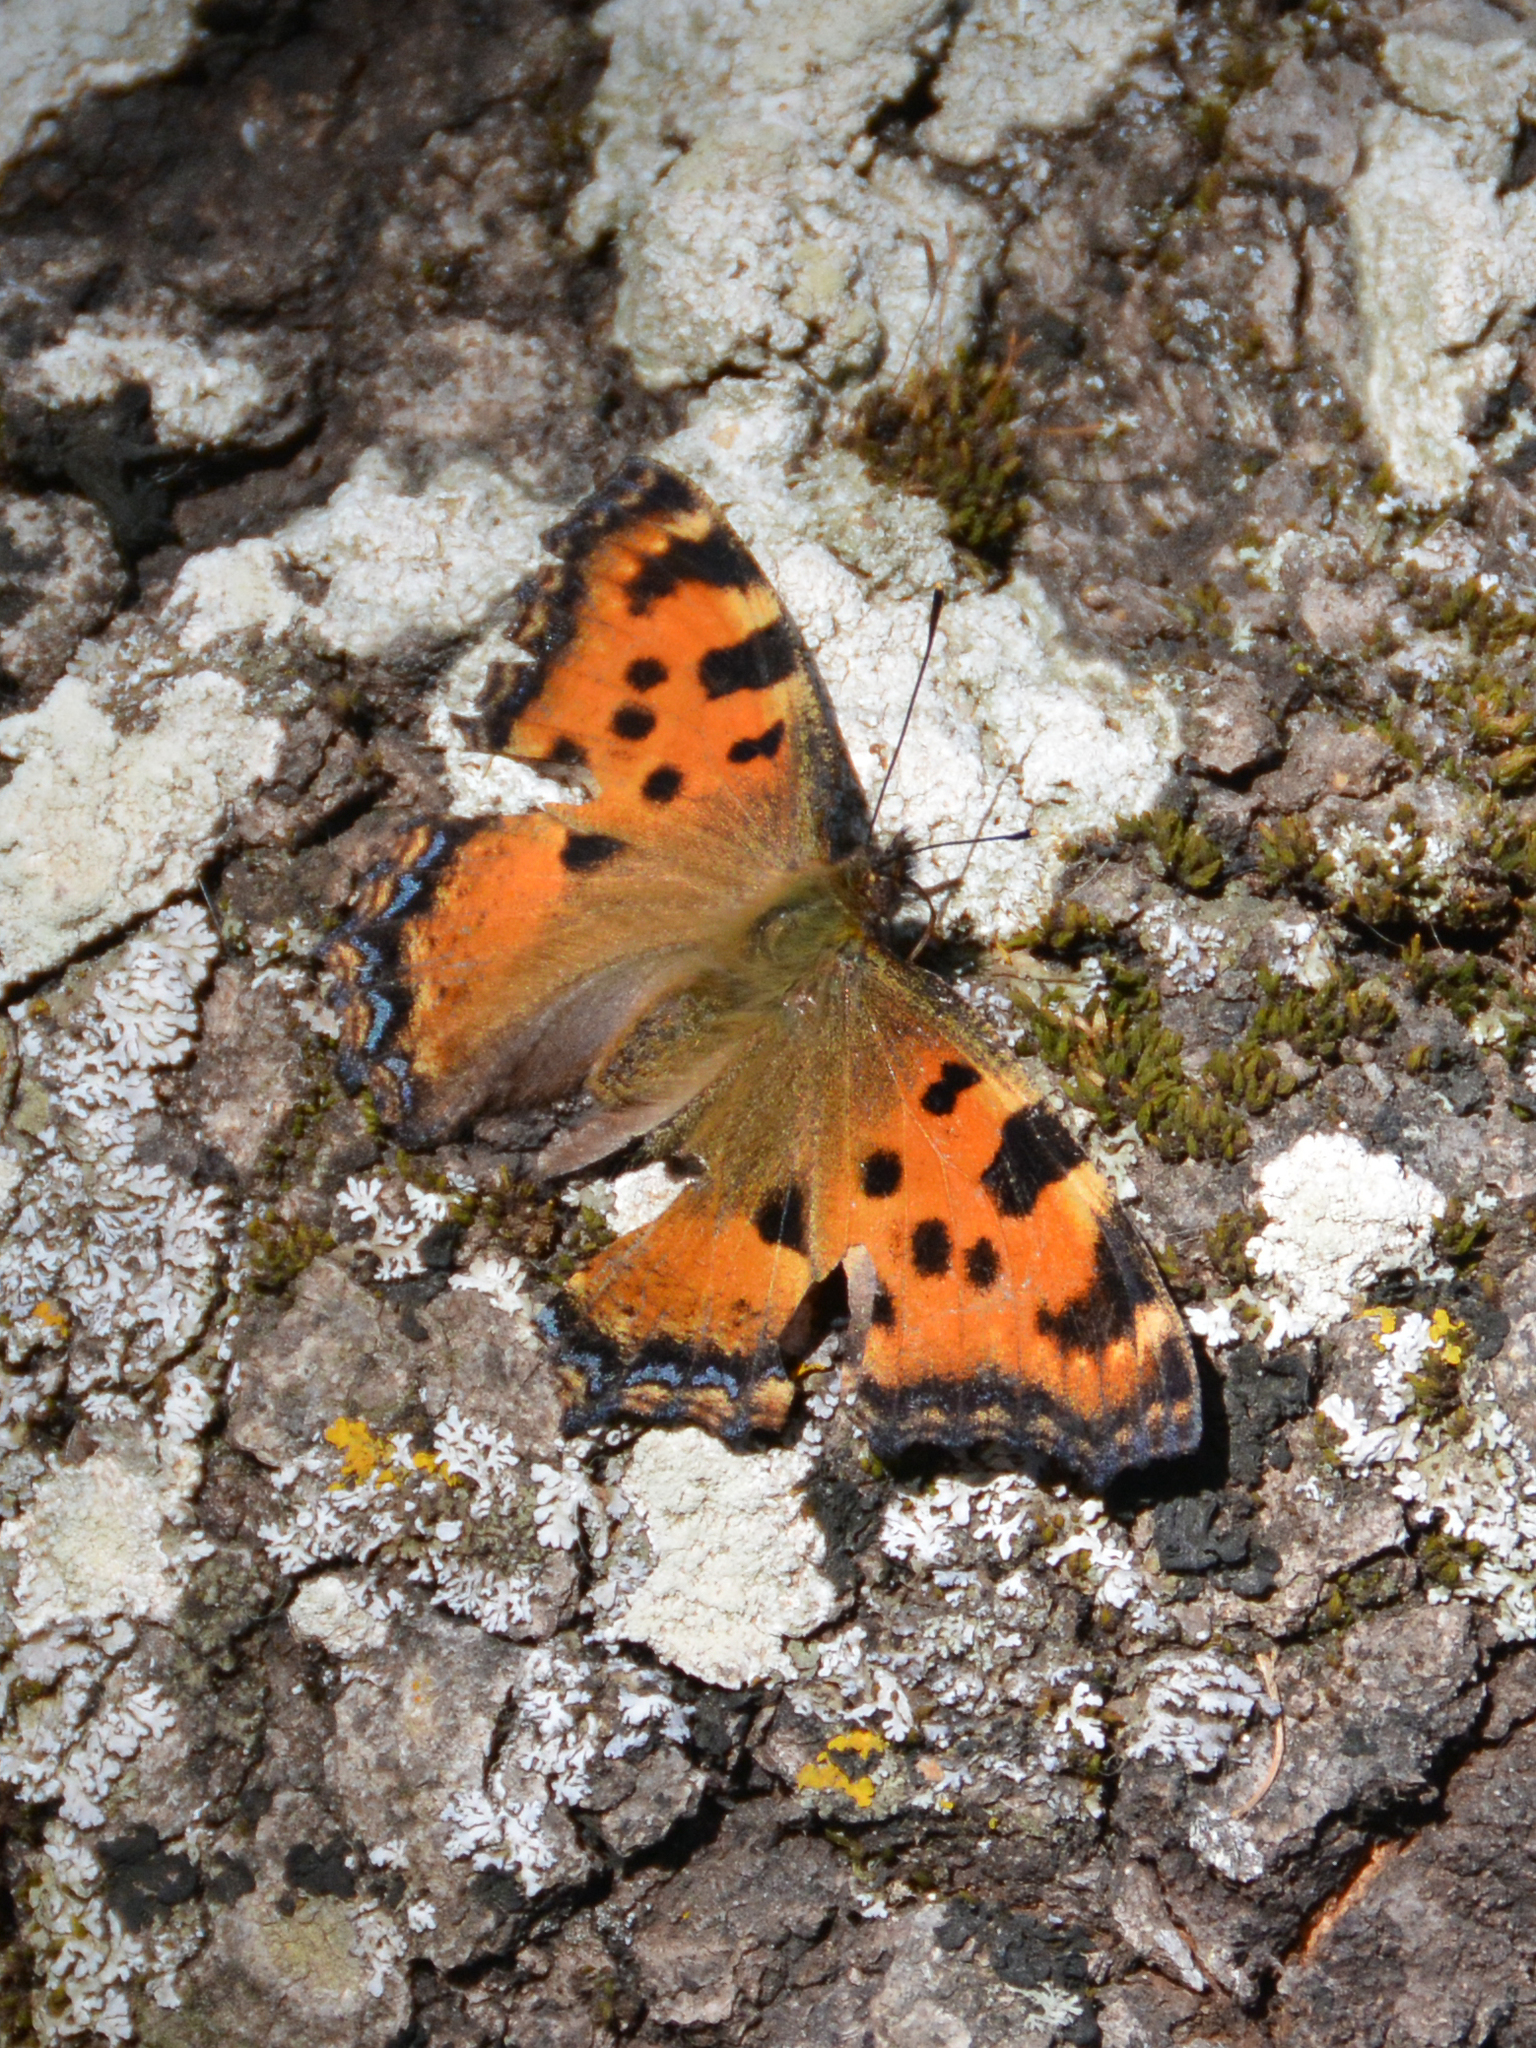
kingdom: Animalia
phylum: Arthropoda
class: Insecta
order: Lepidoptera
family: Nymphalidae
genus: Nymphalis
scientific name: Nymphalis polychloros
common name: Large tortoiseshell
